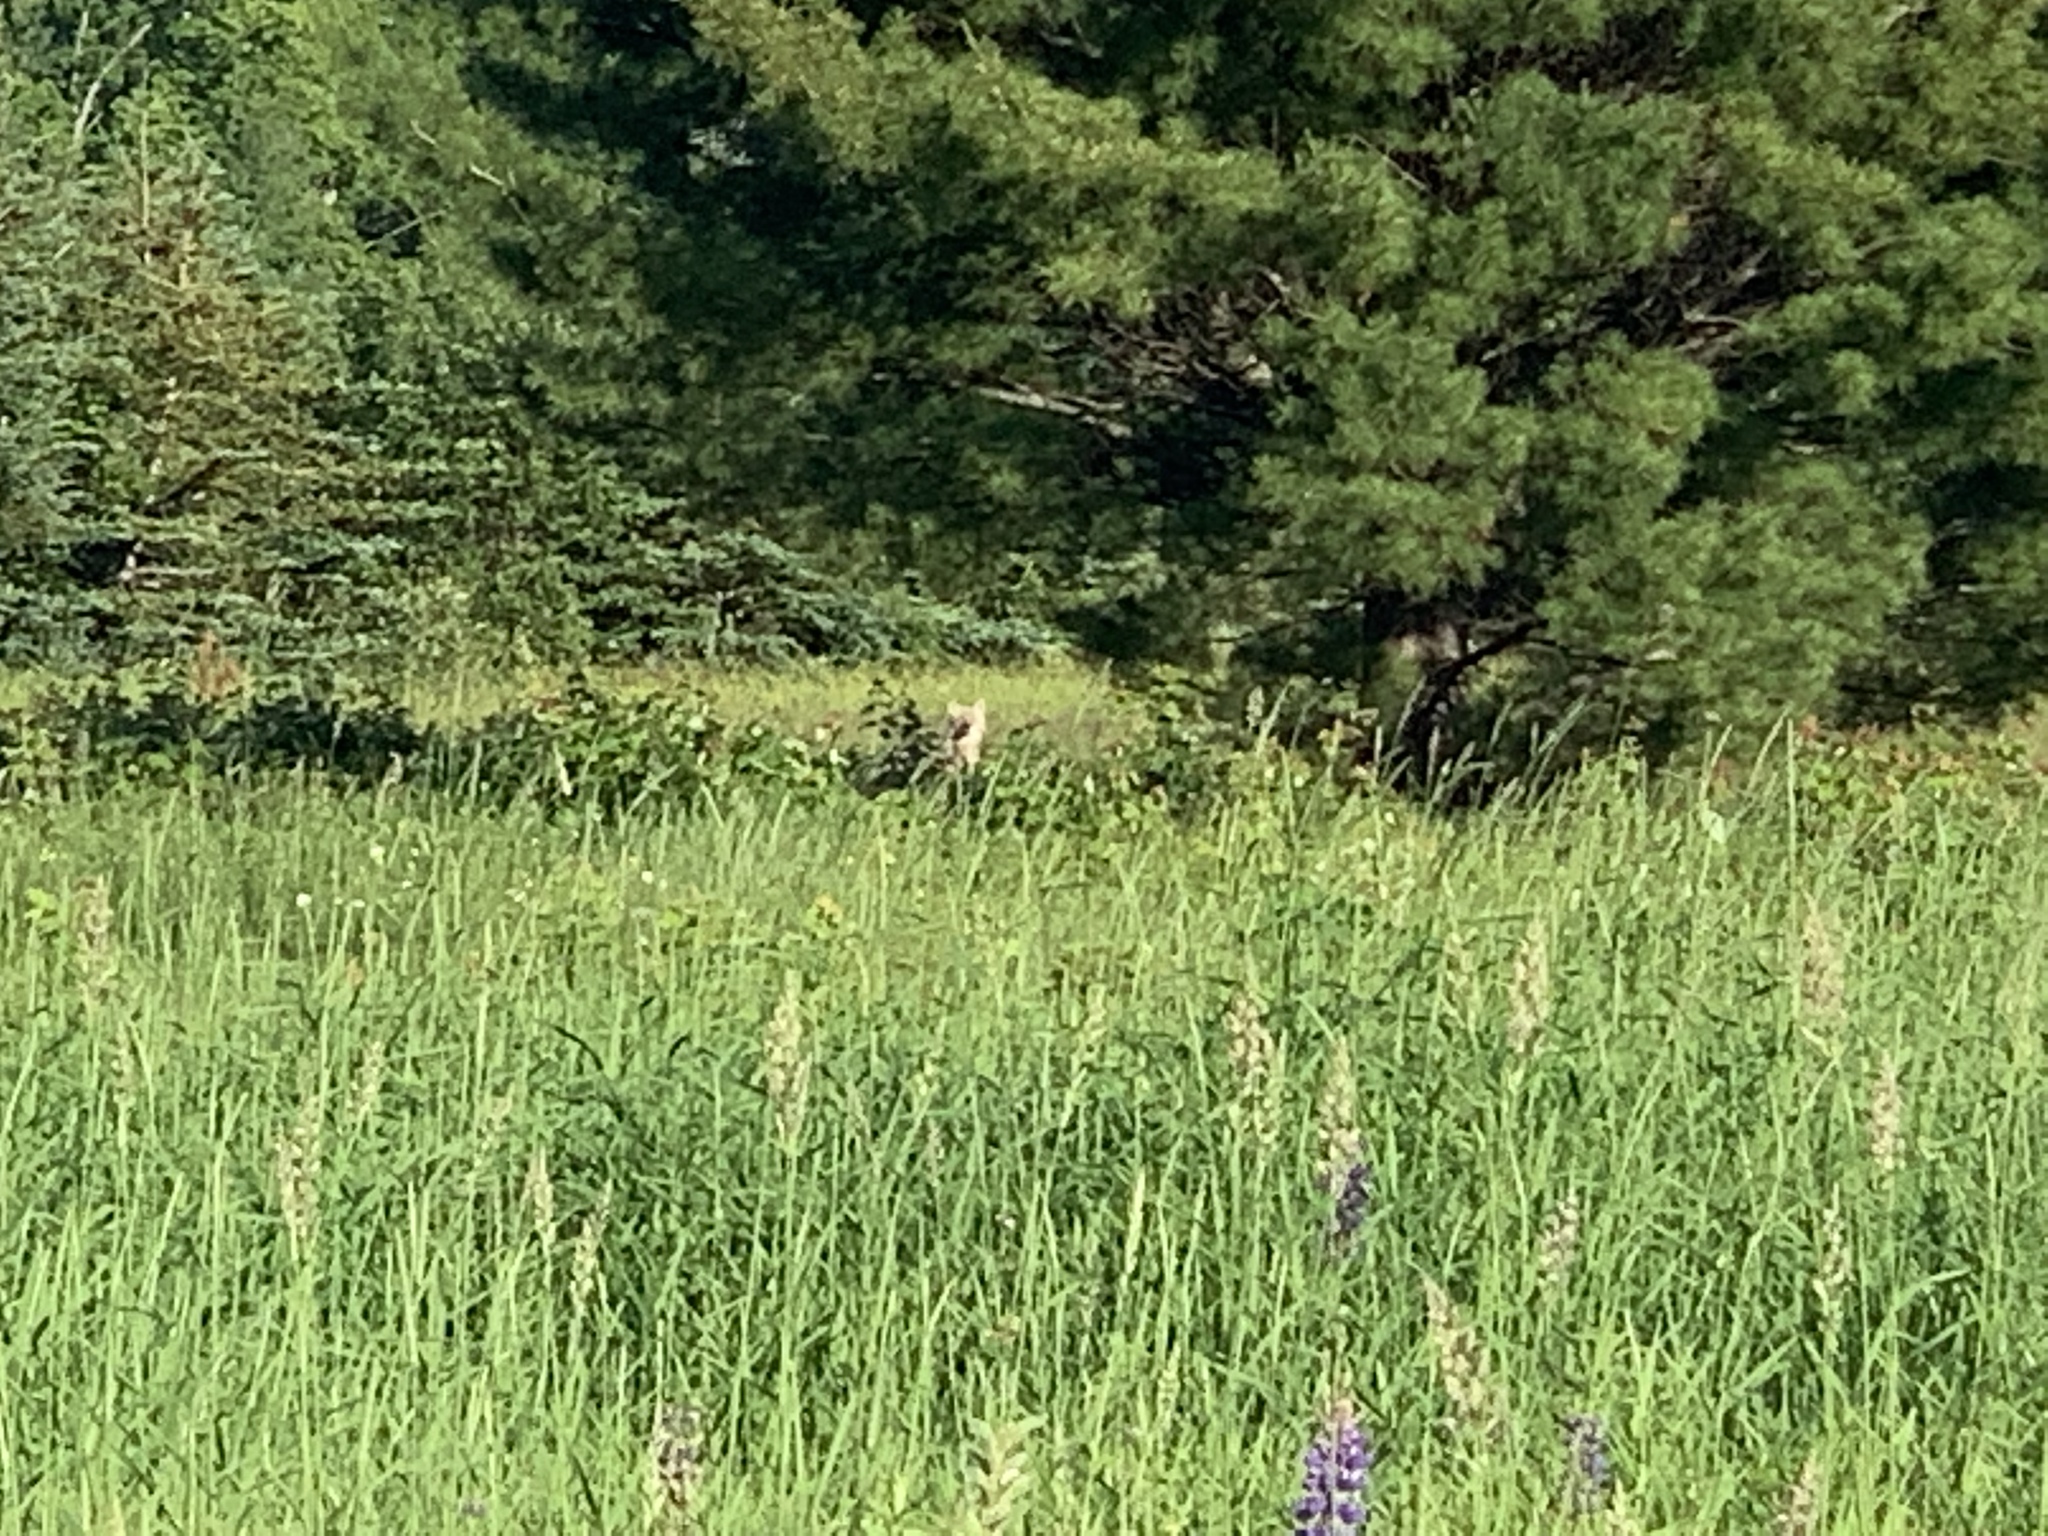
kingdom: Animalia
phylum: Chordata
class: Mammalia
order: Carnivora
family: Canidae
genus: Canis
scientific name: Canis latrans
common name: Coyote
